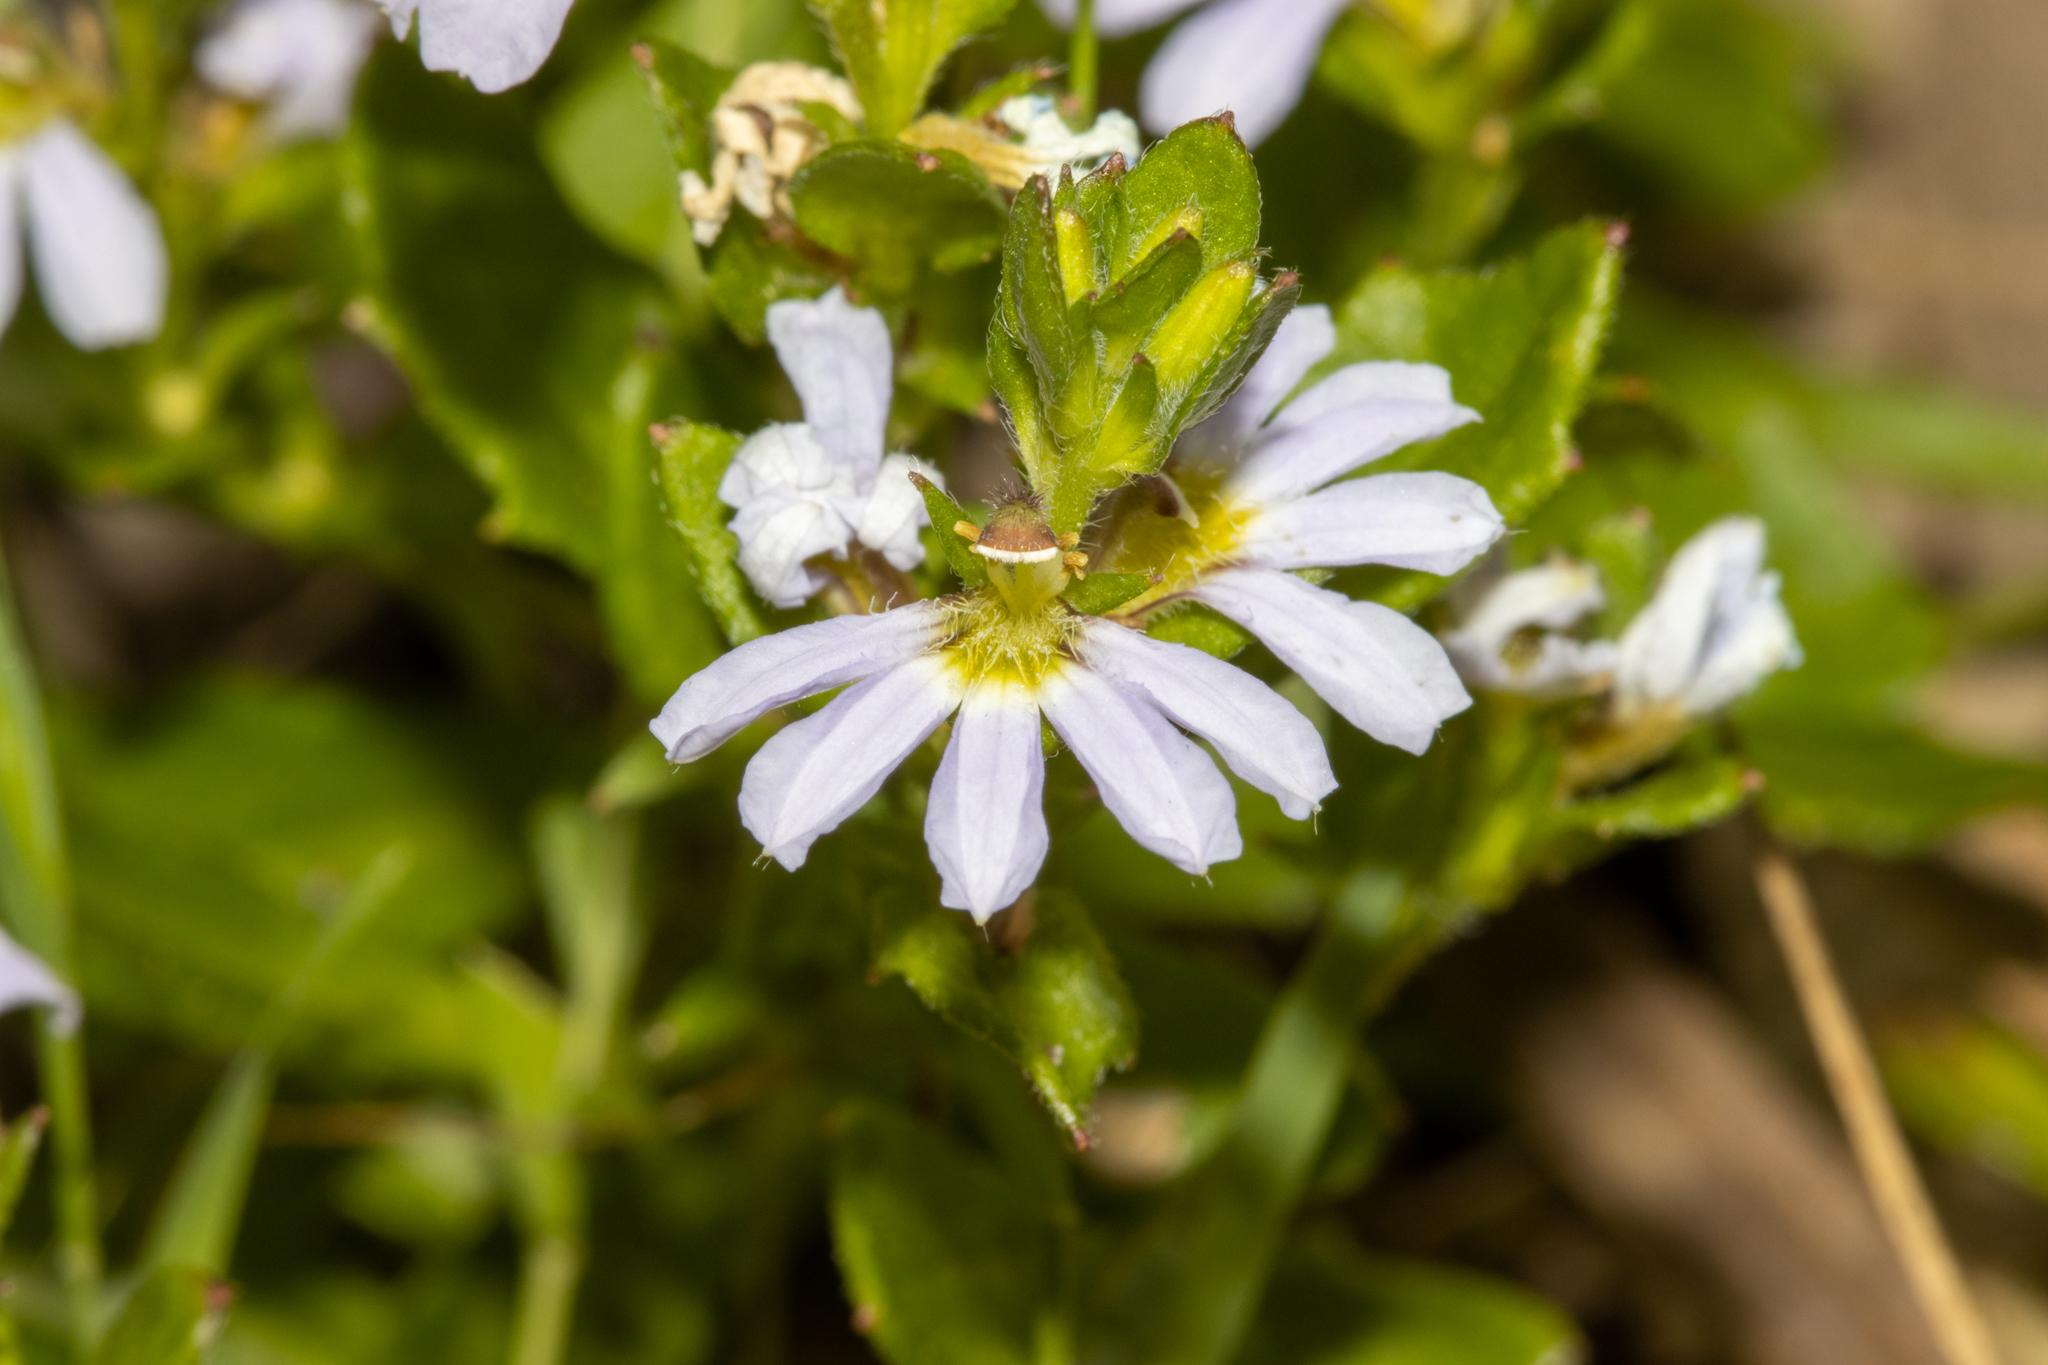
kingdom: Plantae
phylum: Tracheophyta
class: Magnoliopsida
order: Asterales
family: Goodeniaceae
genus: Scaevola
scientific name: Scaevola albida
